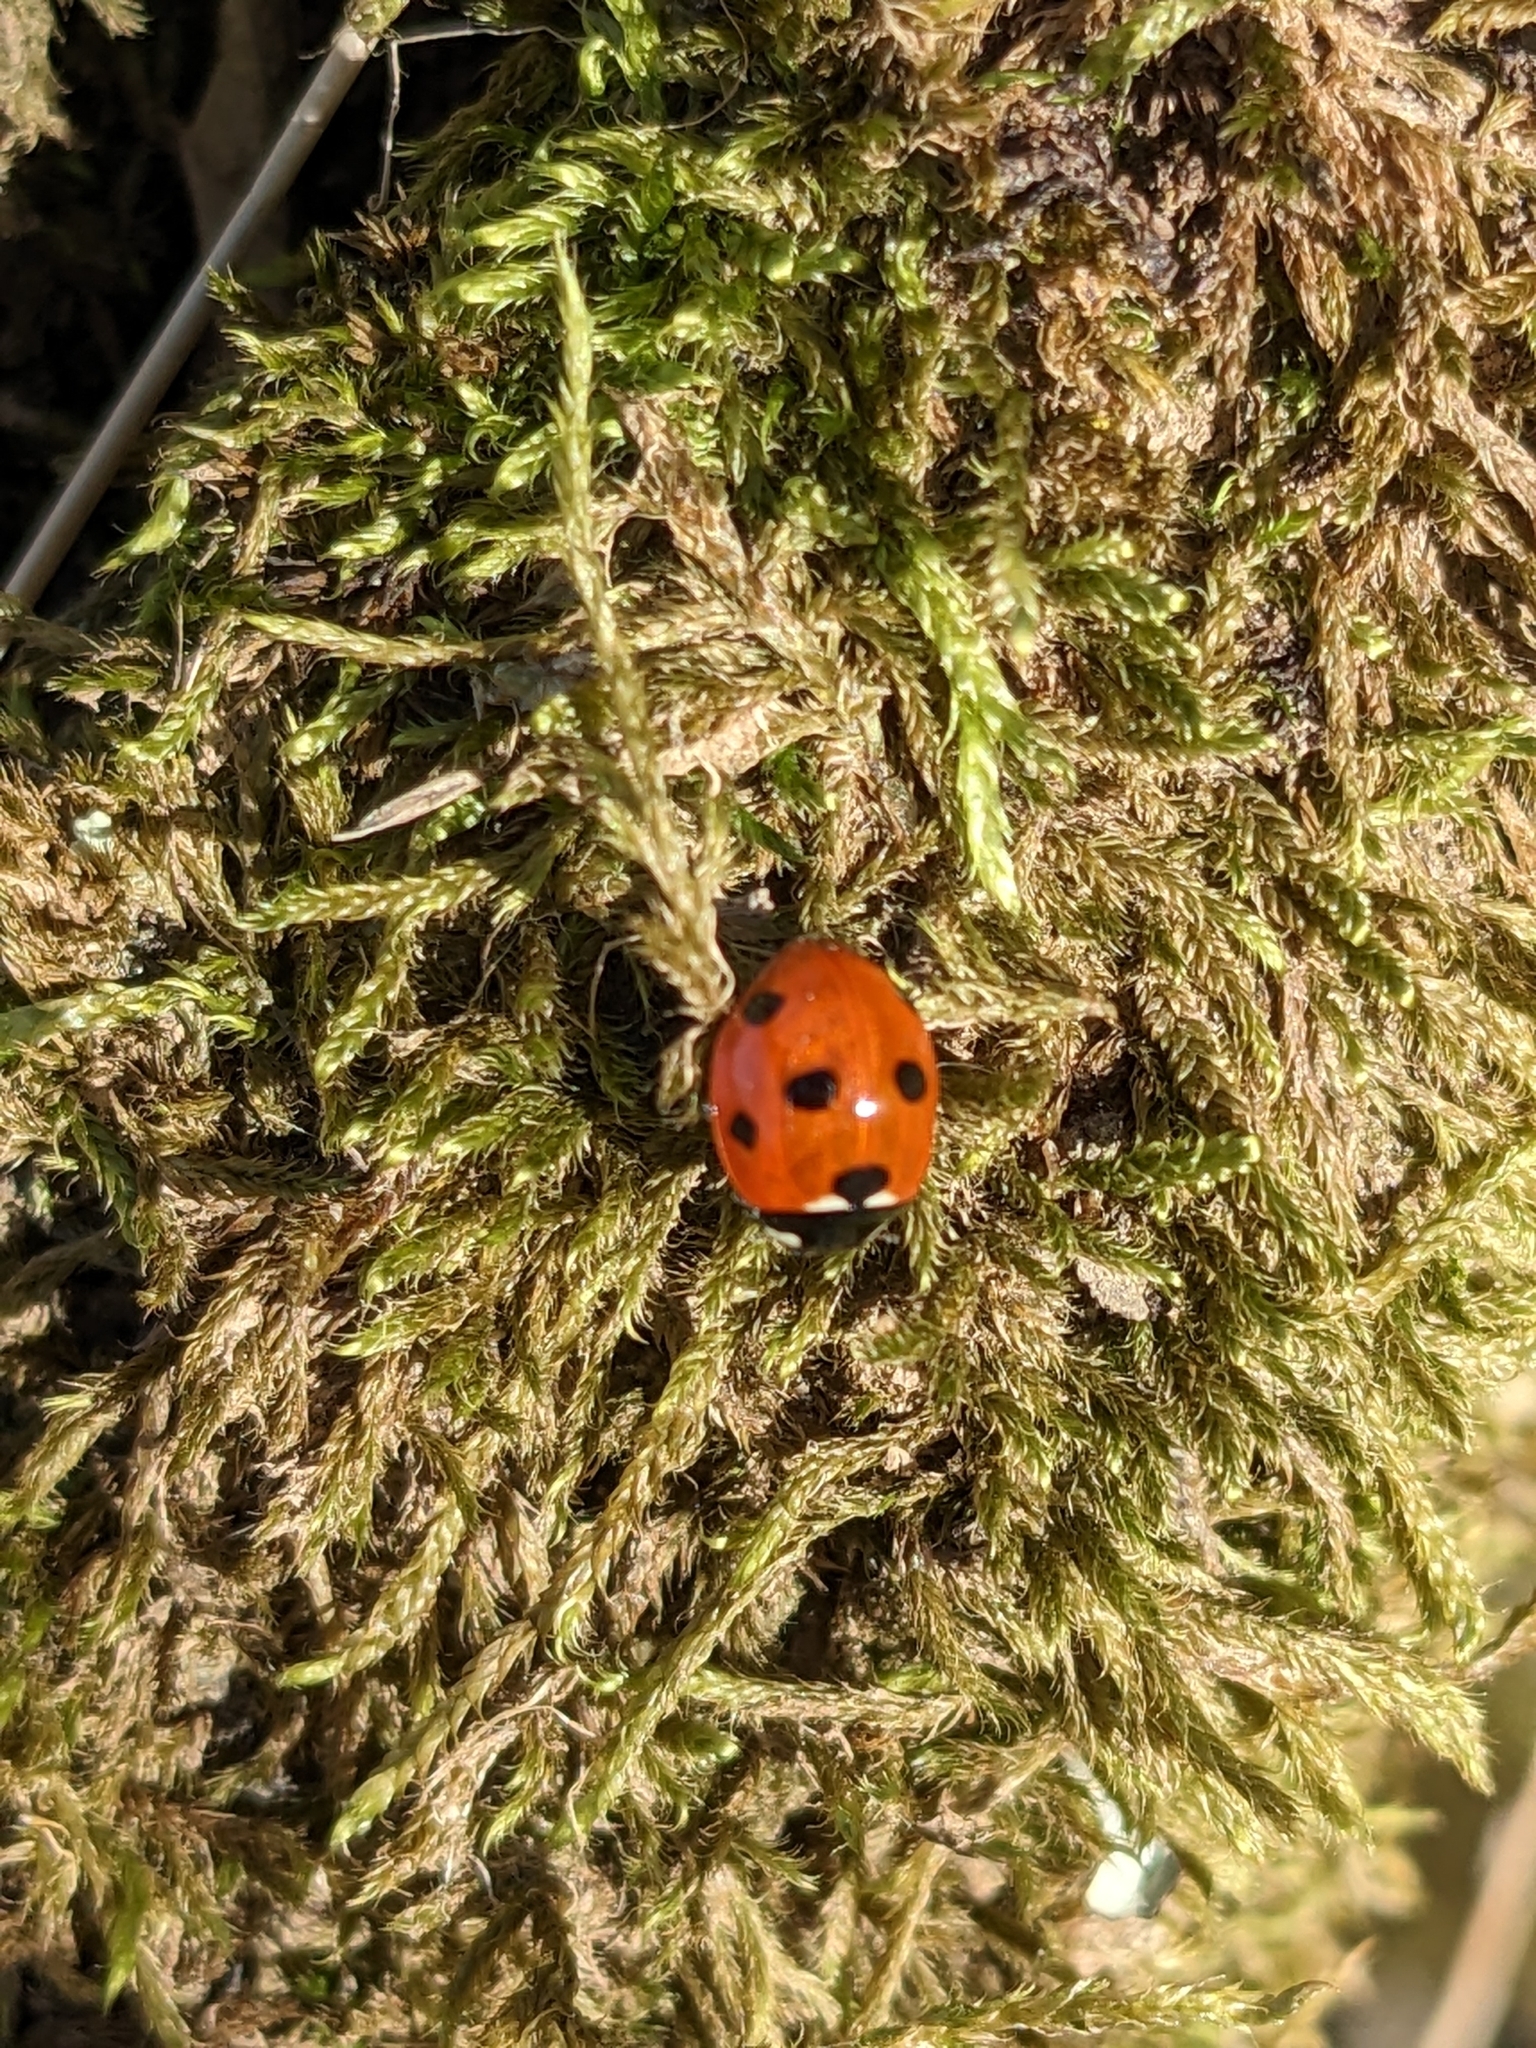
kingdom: Animalia
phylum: Arthropoda
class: Insecta
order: Coleoptera
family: Coccinellidae
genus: Coccinella
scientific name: Coccinella septempunctata
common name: Sevenspotted lady beetle
